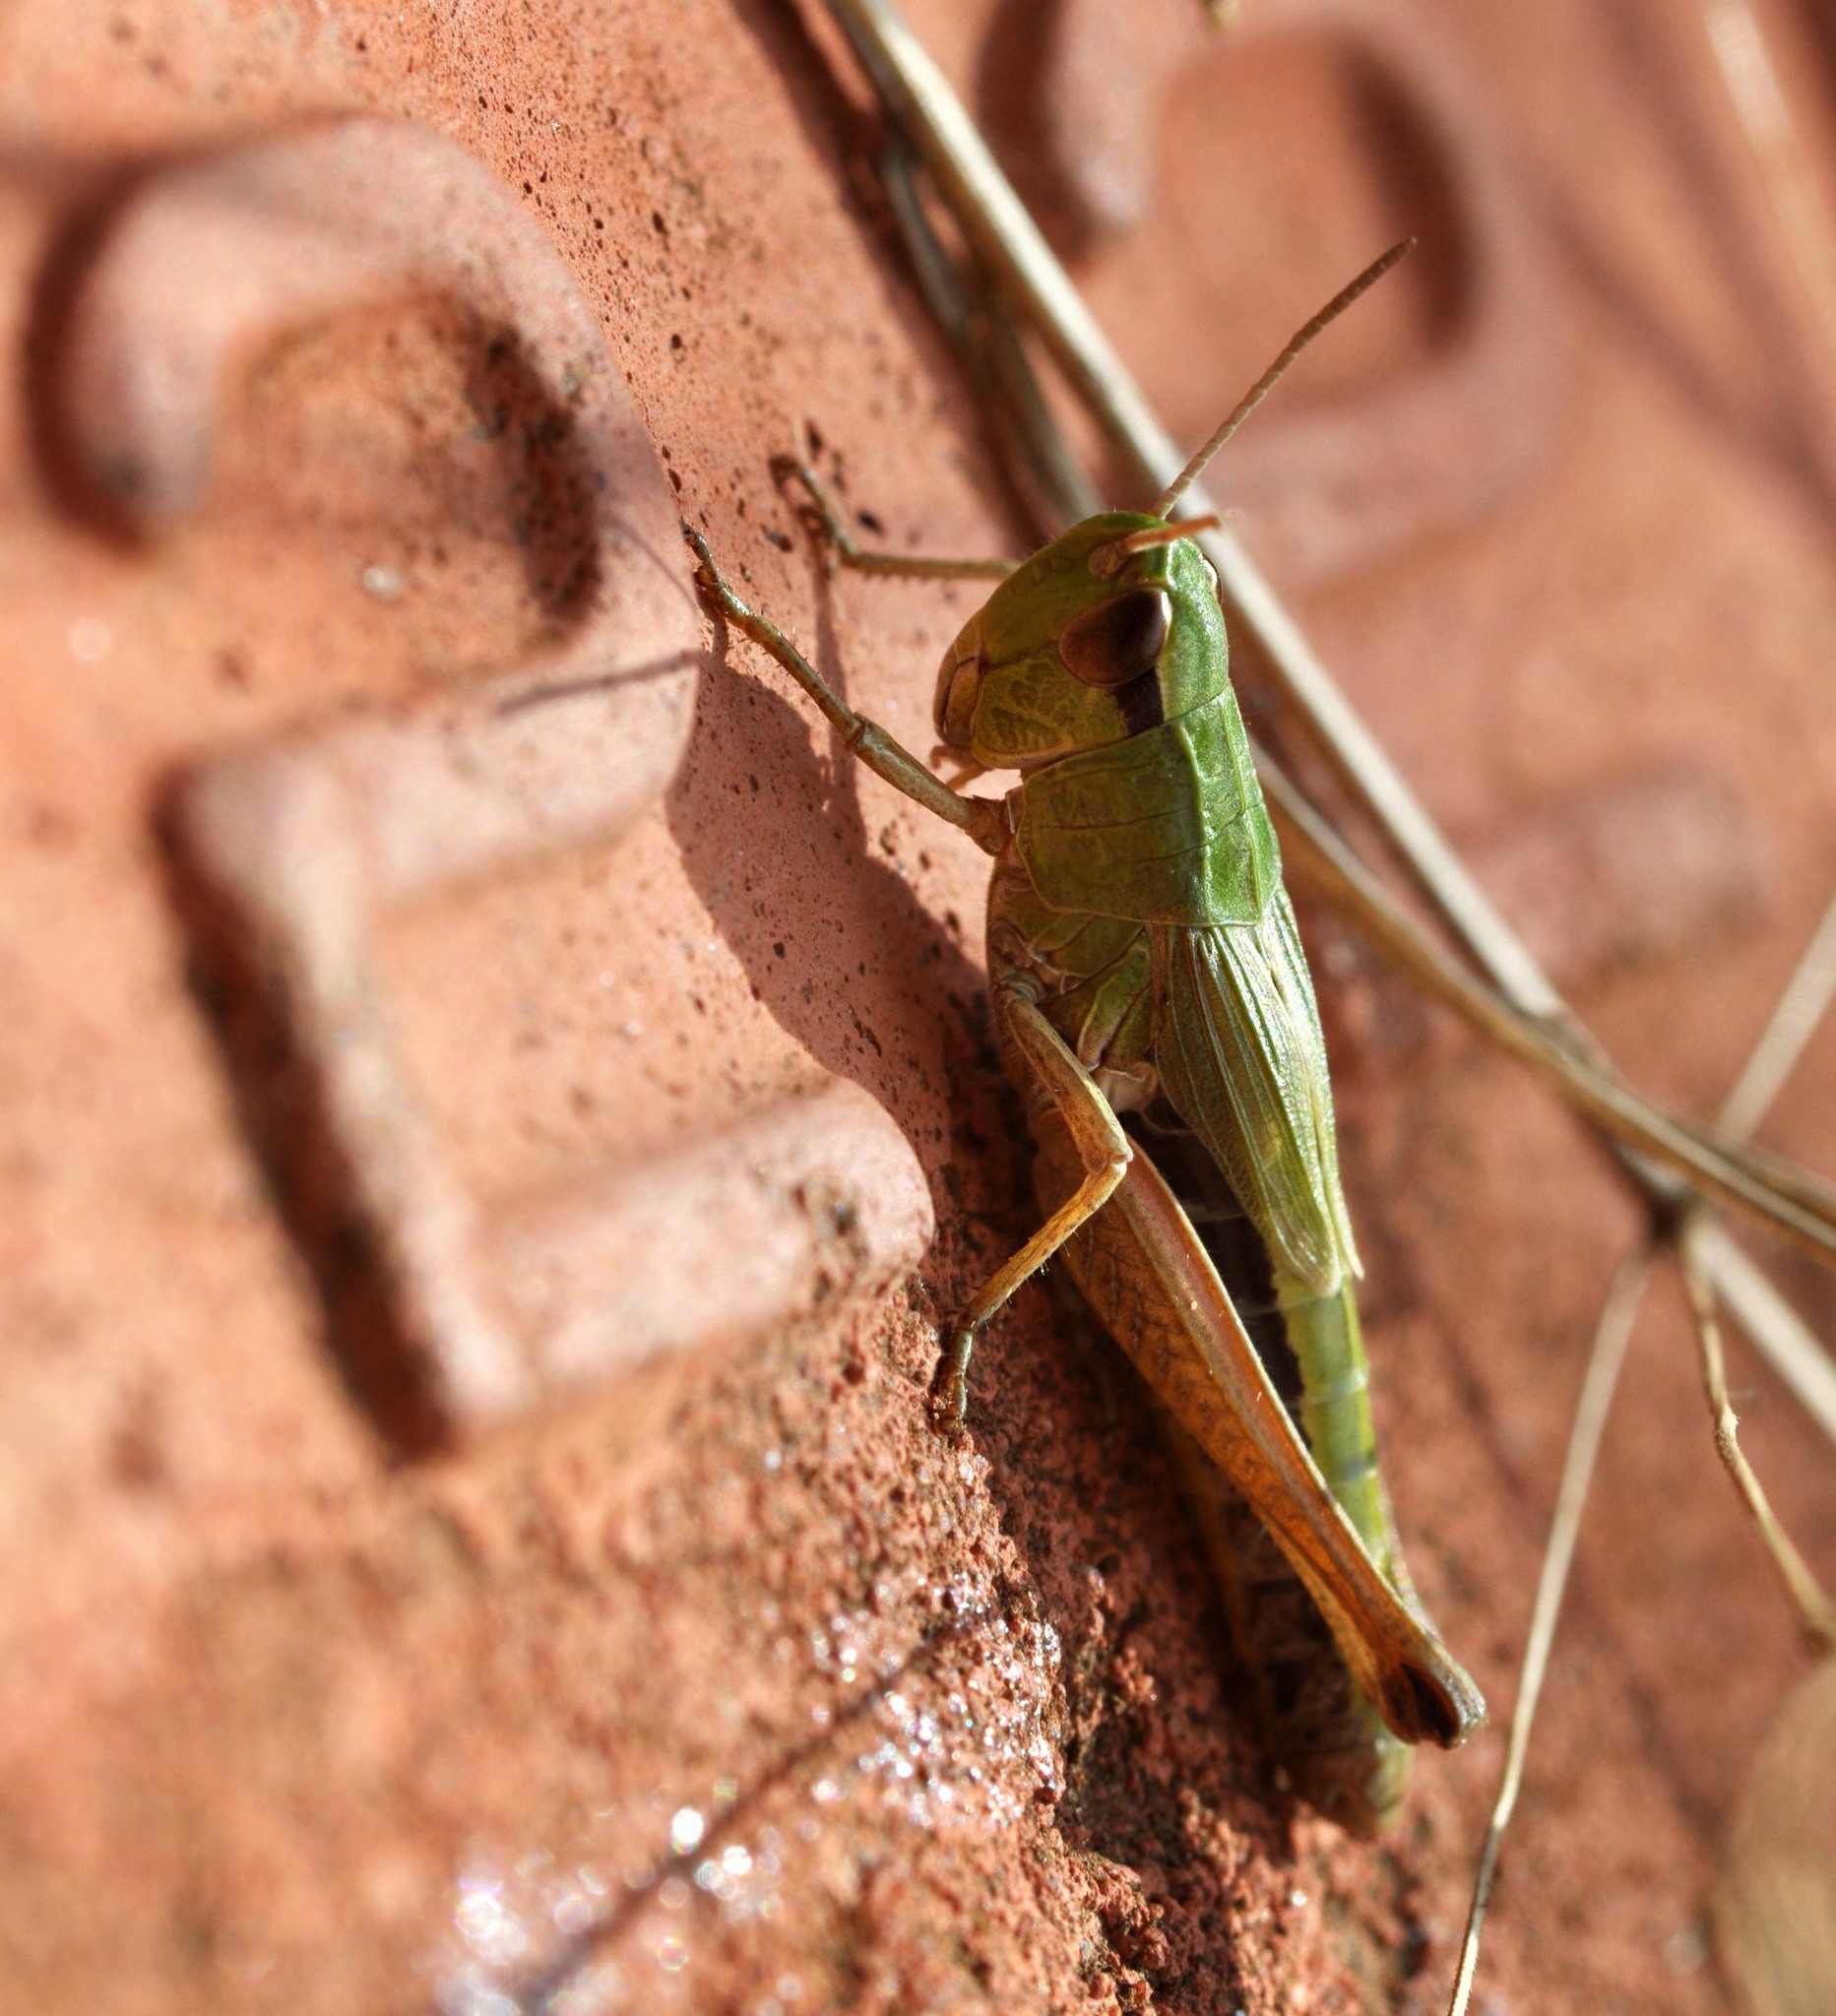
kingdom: Animalia
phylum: Arthropoda
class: Insecta
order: Orthoptera
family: Acrididae
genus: Pseudochorthippus
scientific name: Pseudochorthippus parallelus
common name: Meadow grasshopper
